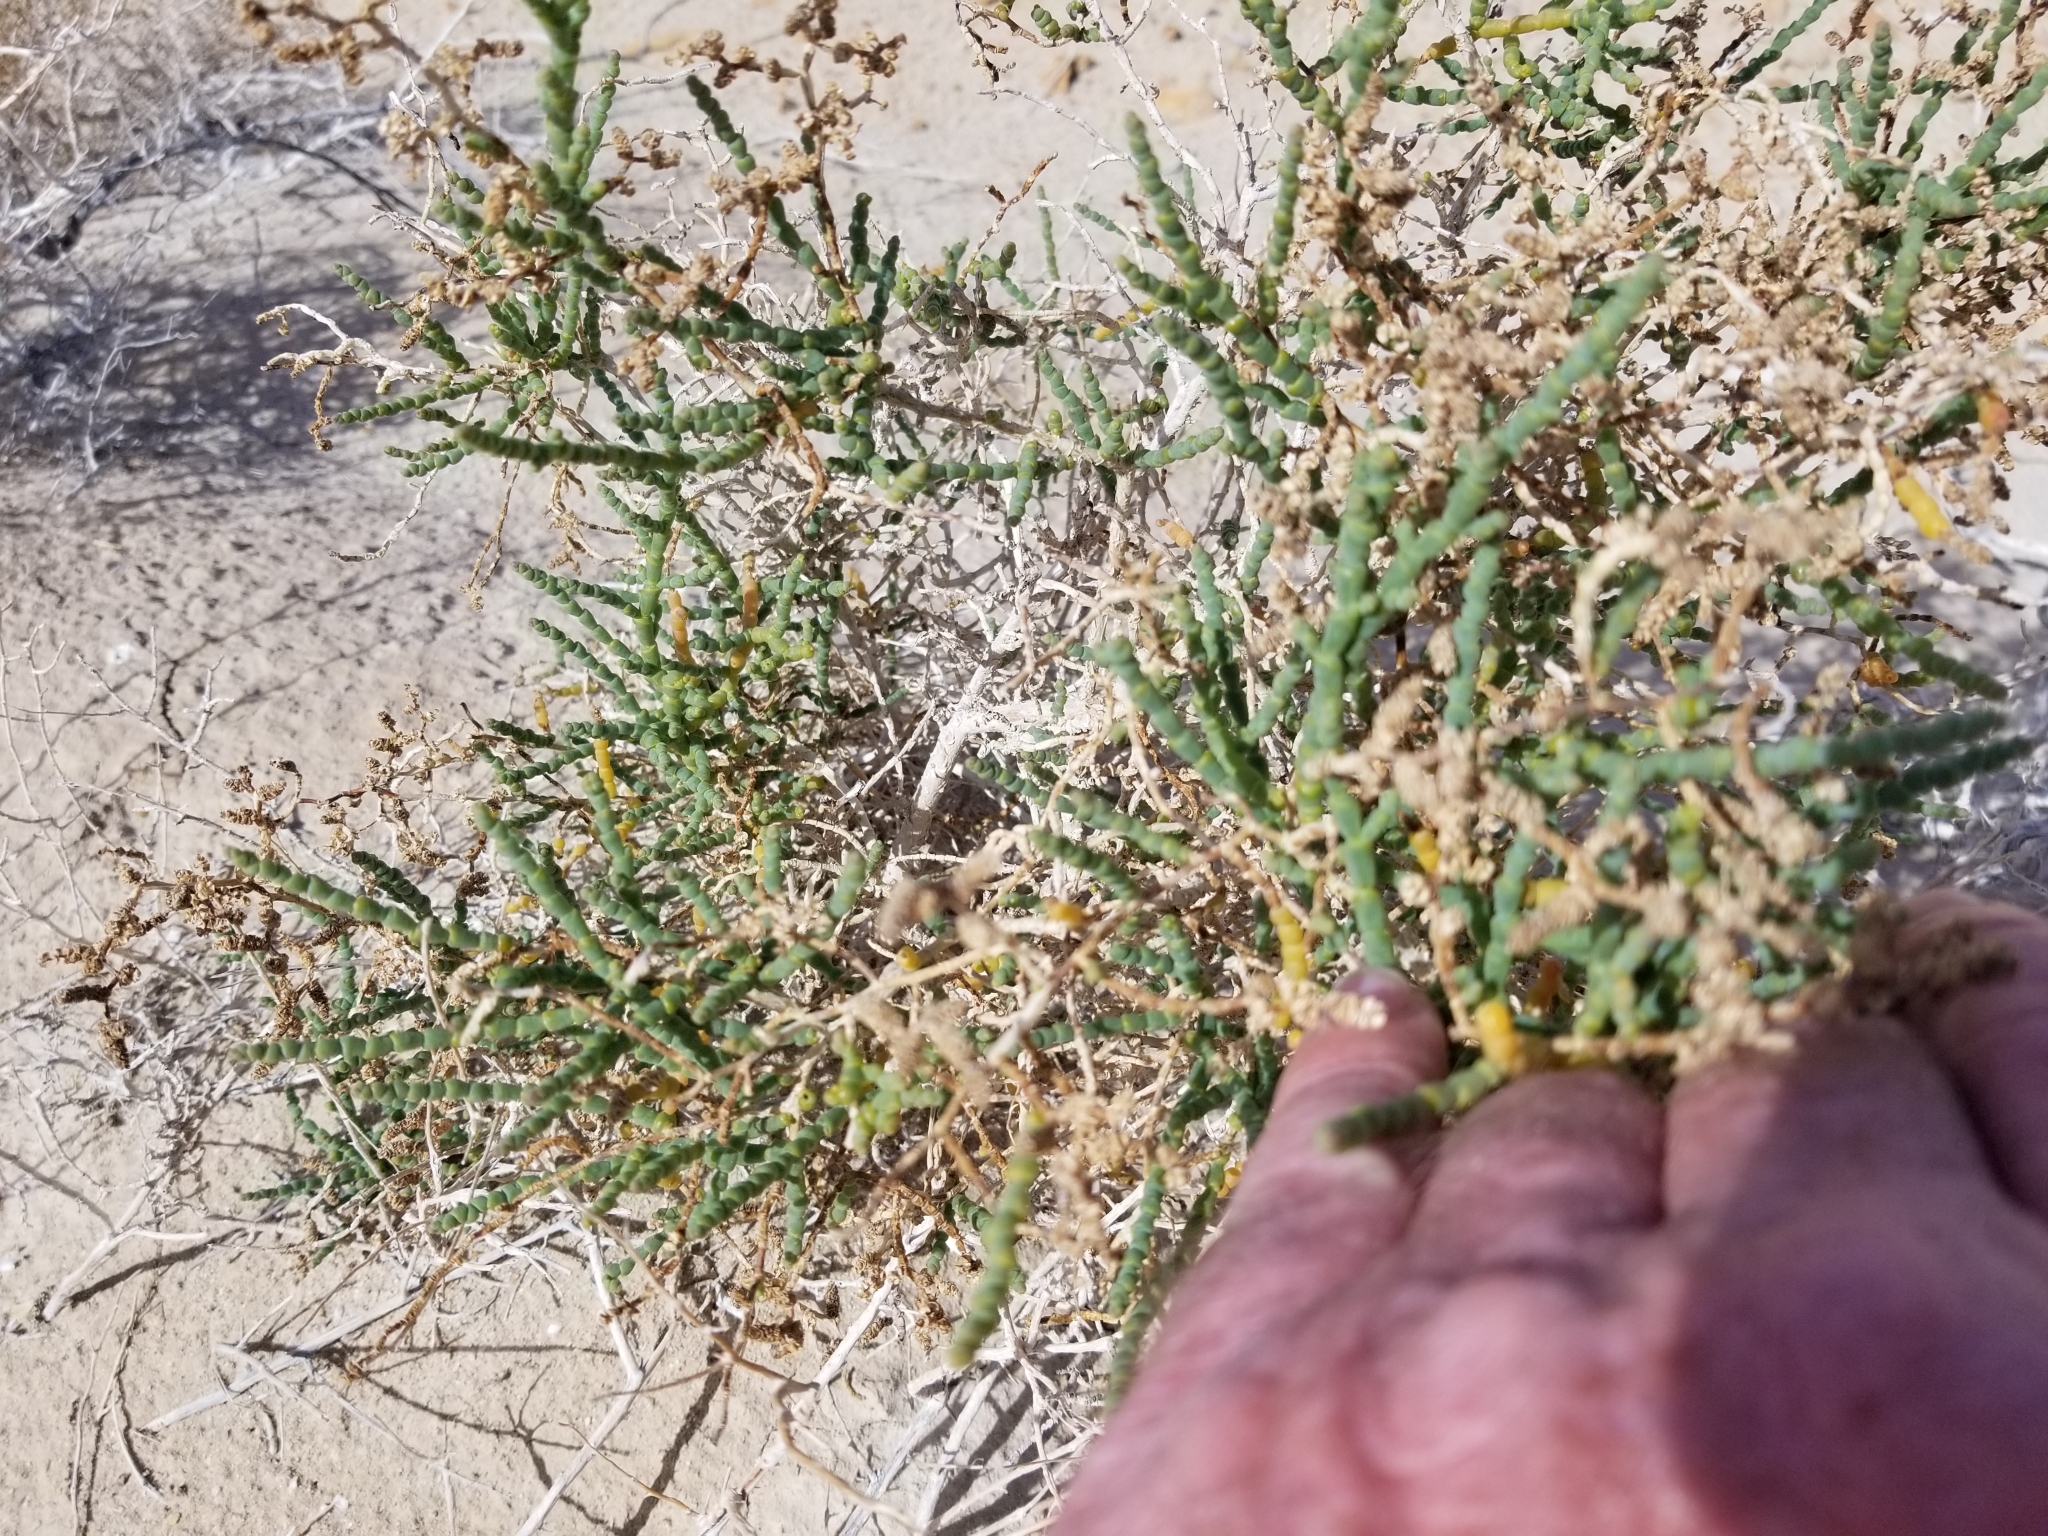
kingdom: Plantae
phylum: Tracheophyta
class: Magnoliopsida
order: Caryophyllales
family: Amaranthaceae
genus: Allenrolfea
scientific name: Allenrolfea occidentalis
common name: Iodine-bush
